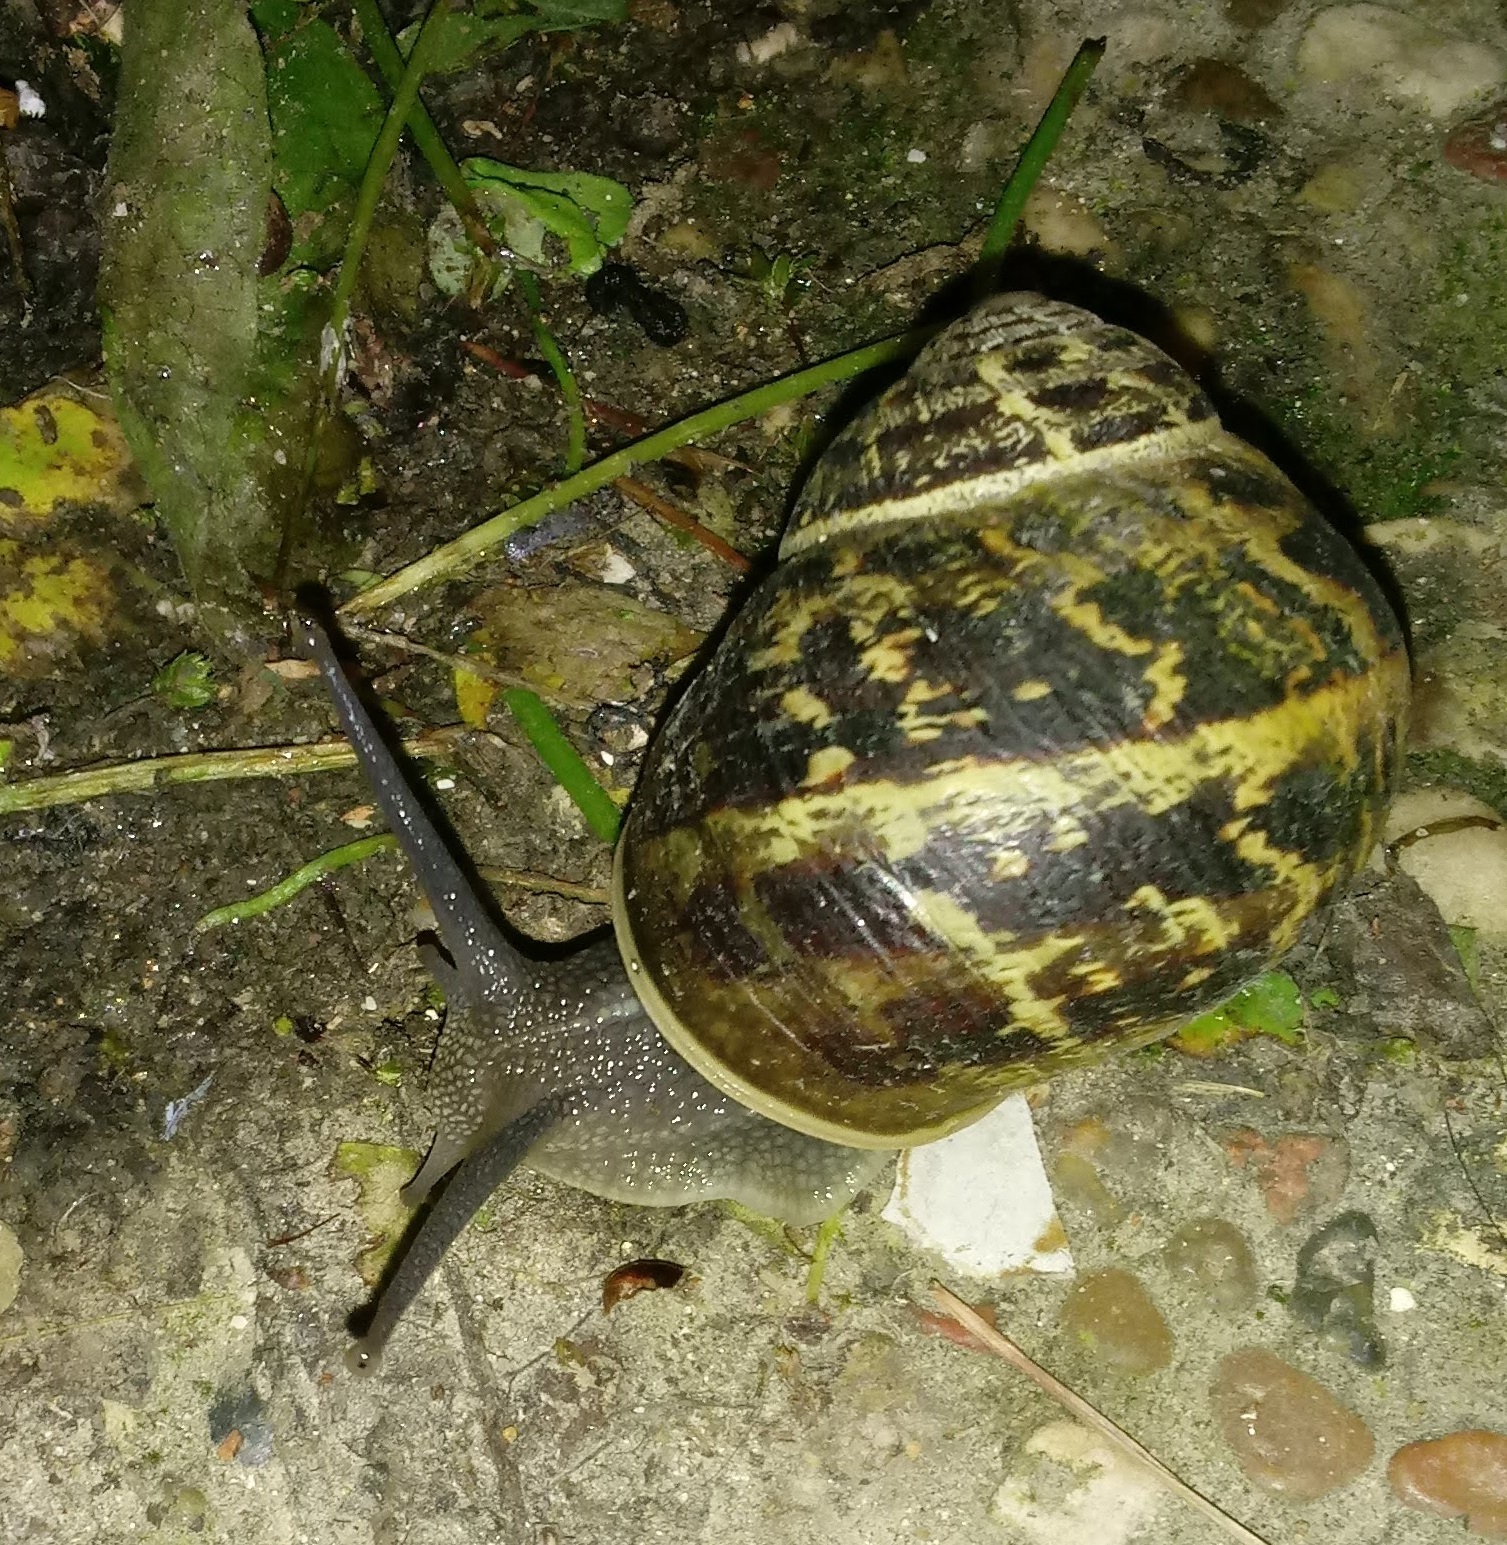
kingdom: Animalia
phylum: Mollusca
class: Gastropoda
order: Stylommatophora
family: Helicidae
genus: Cornu
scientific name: Cornu aspersum
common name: Brown garden snail
